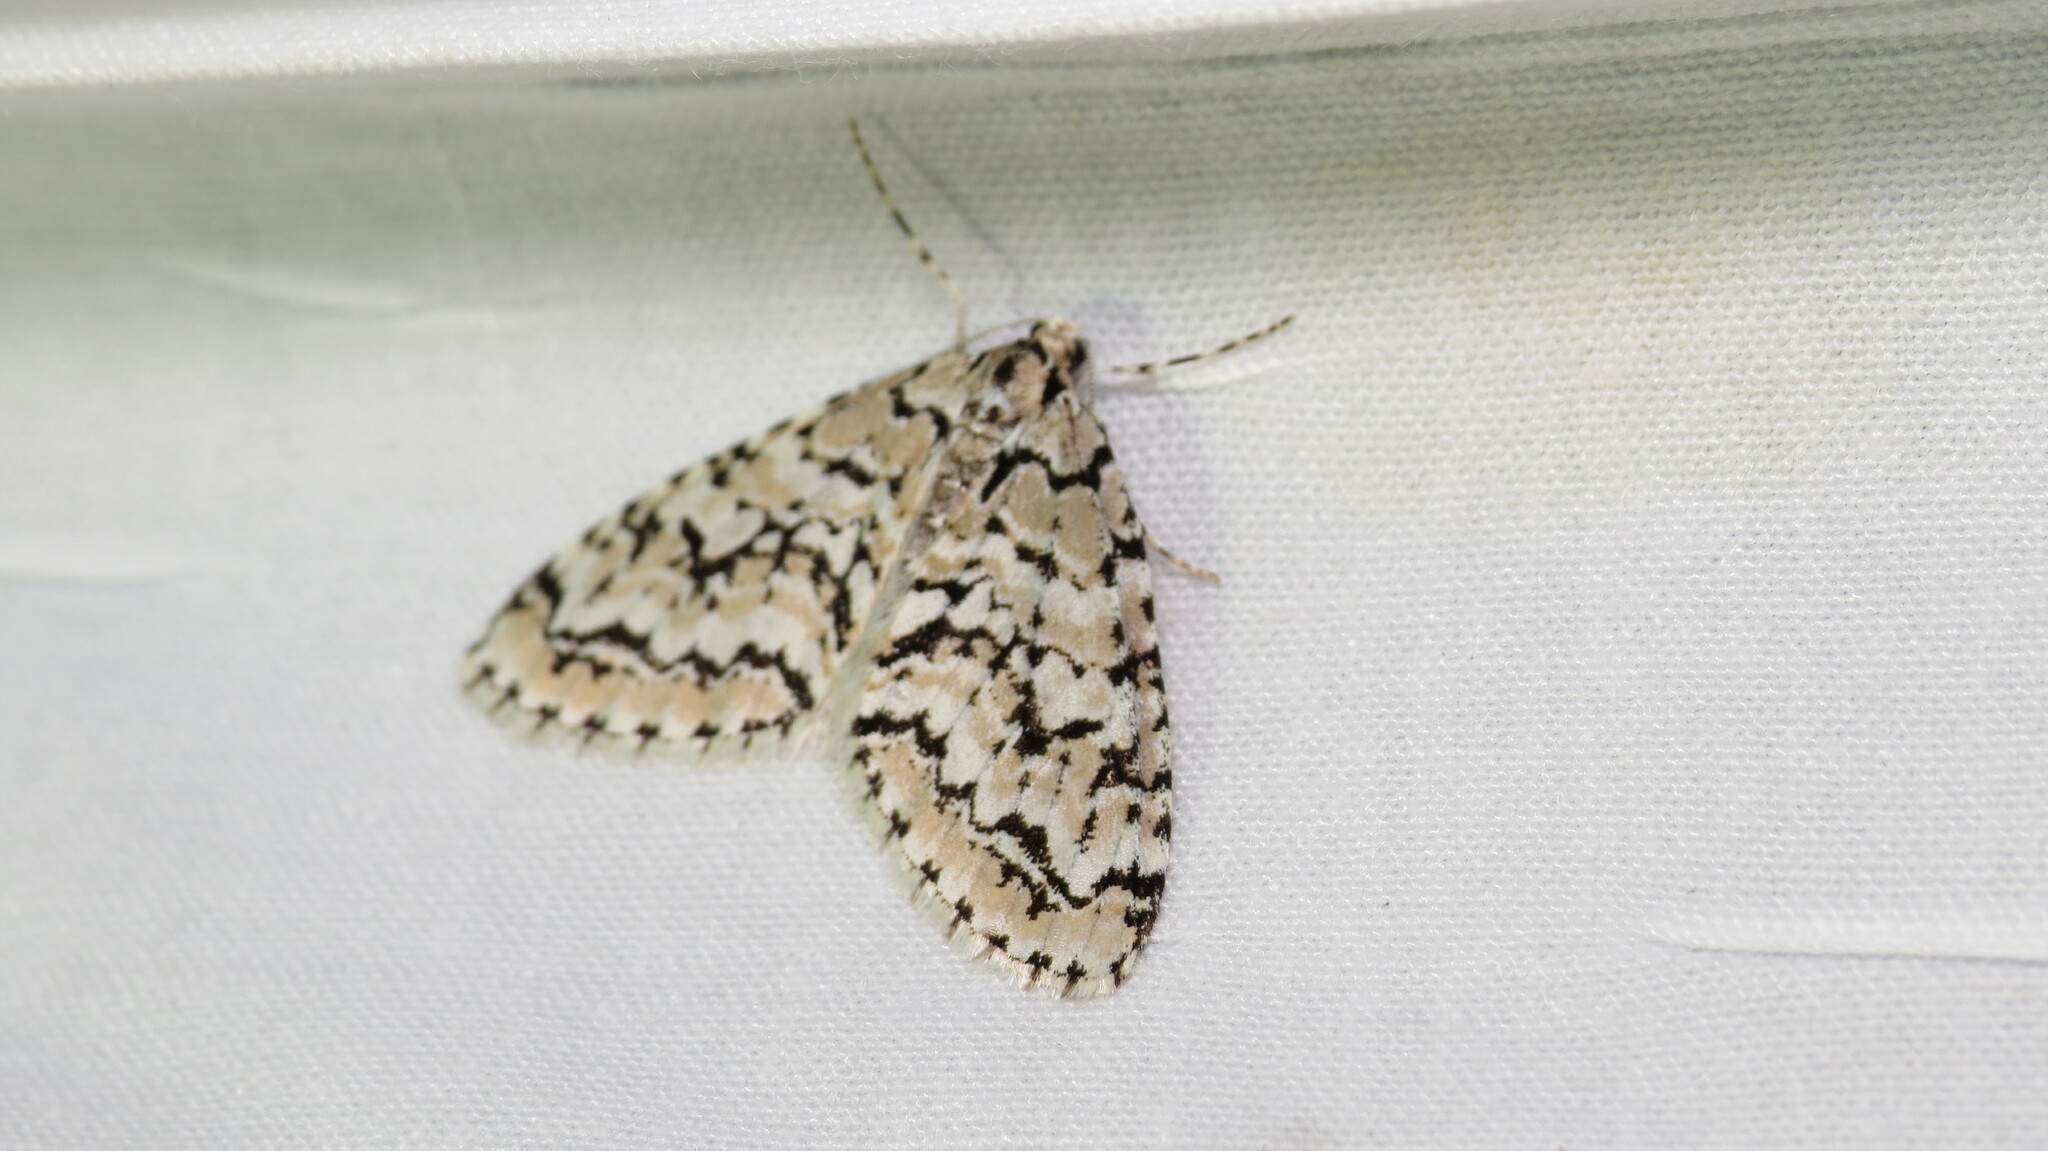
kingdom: Animalia
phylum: Arthropoda
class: Insecta
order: Lepidoptera
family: Geometridae
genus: Cladara
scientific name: Cladara atroliturata
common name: Scribbler
